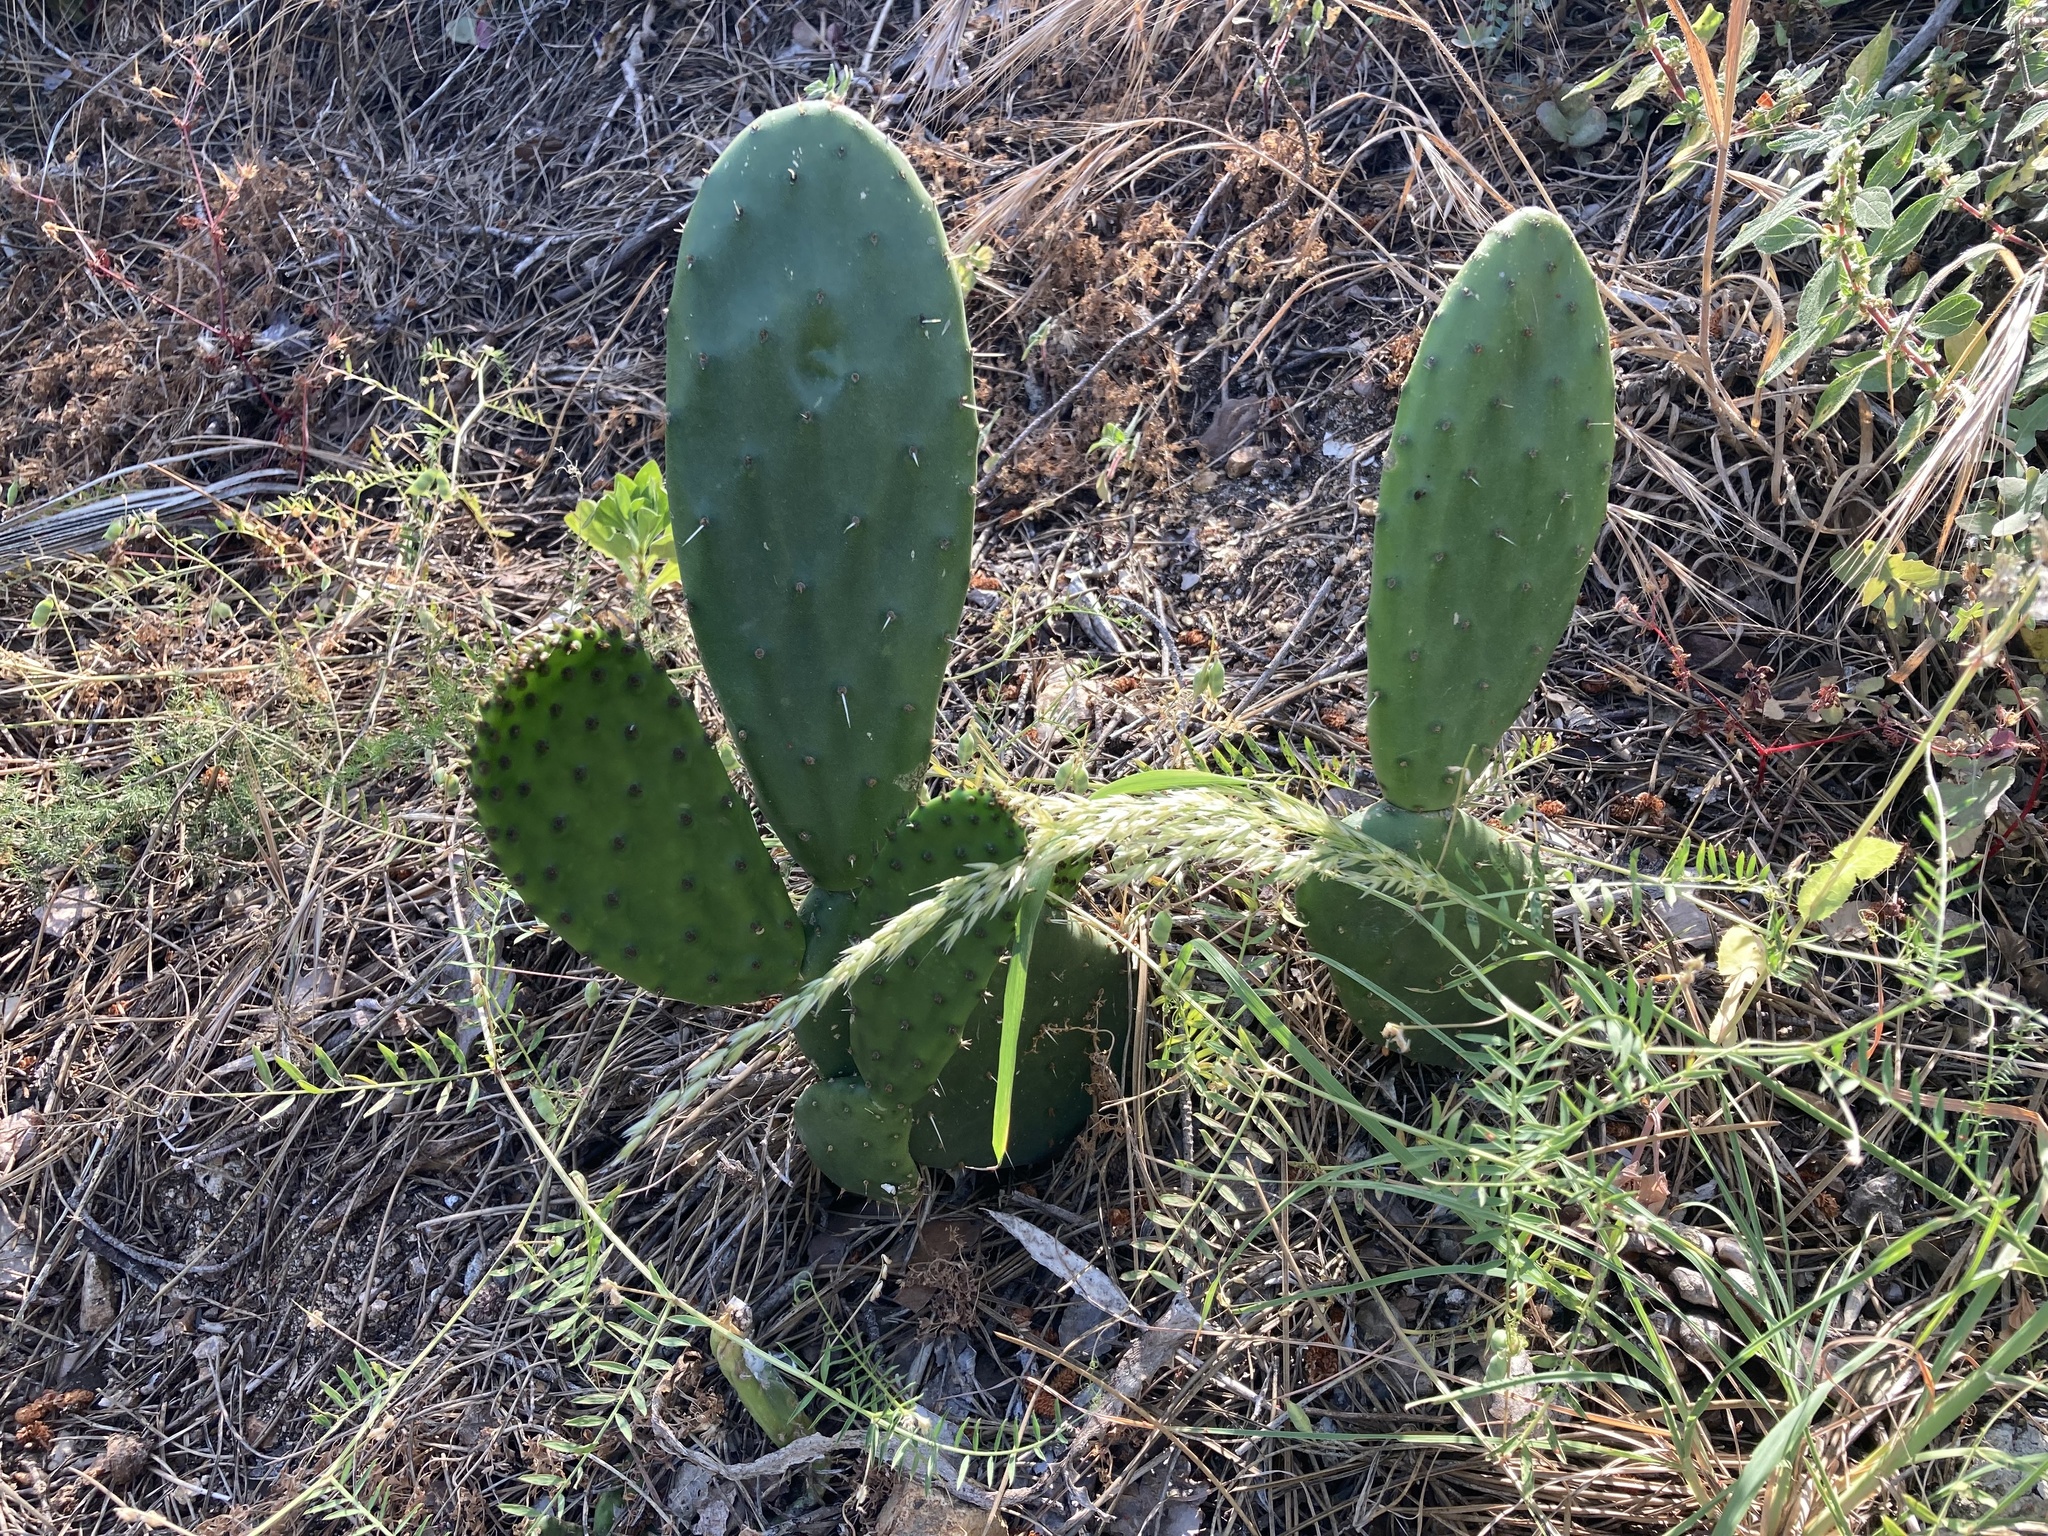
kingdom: Plantae
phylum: Tracheophyta
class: Magnoliopsida
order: Caryophyllales
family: Cactaceae
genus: Opuntia
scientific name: Opuntia ficus-indica
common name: Barbary fig
